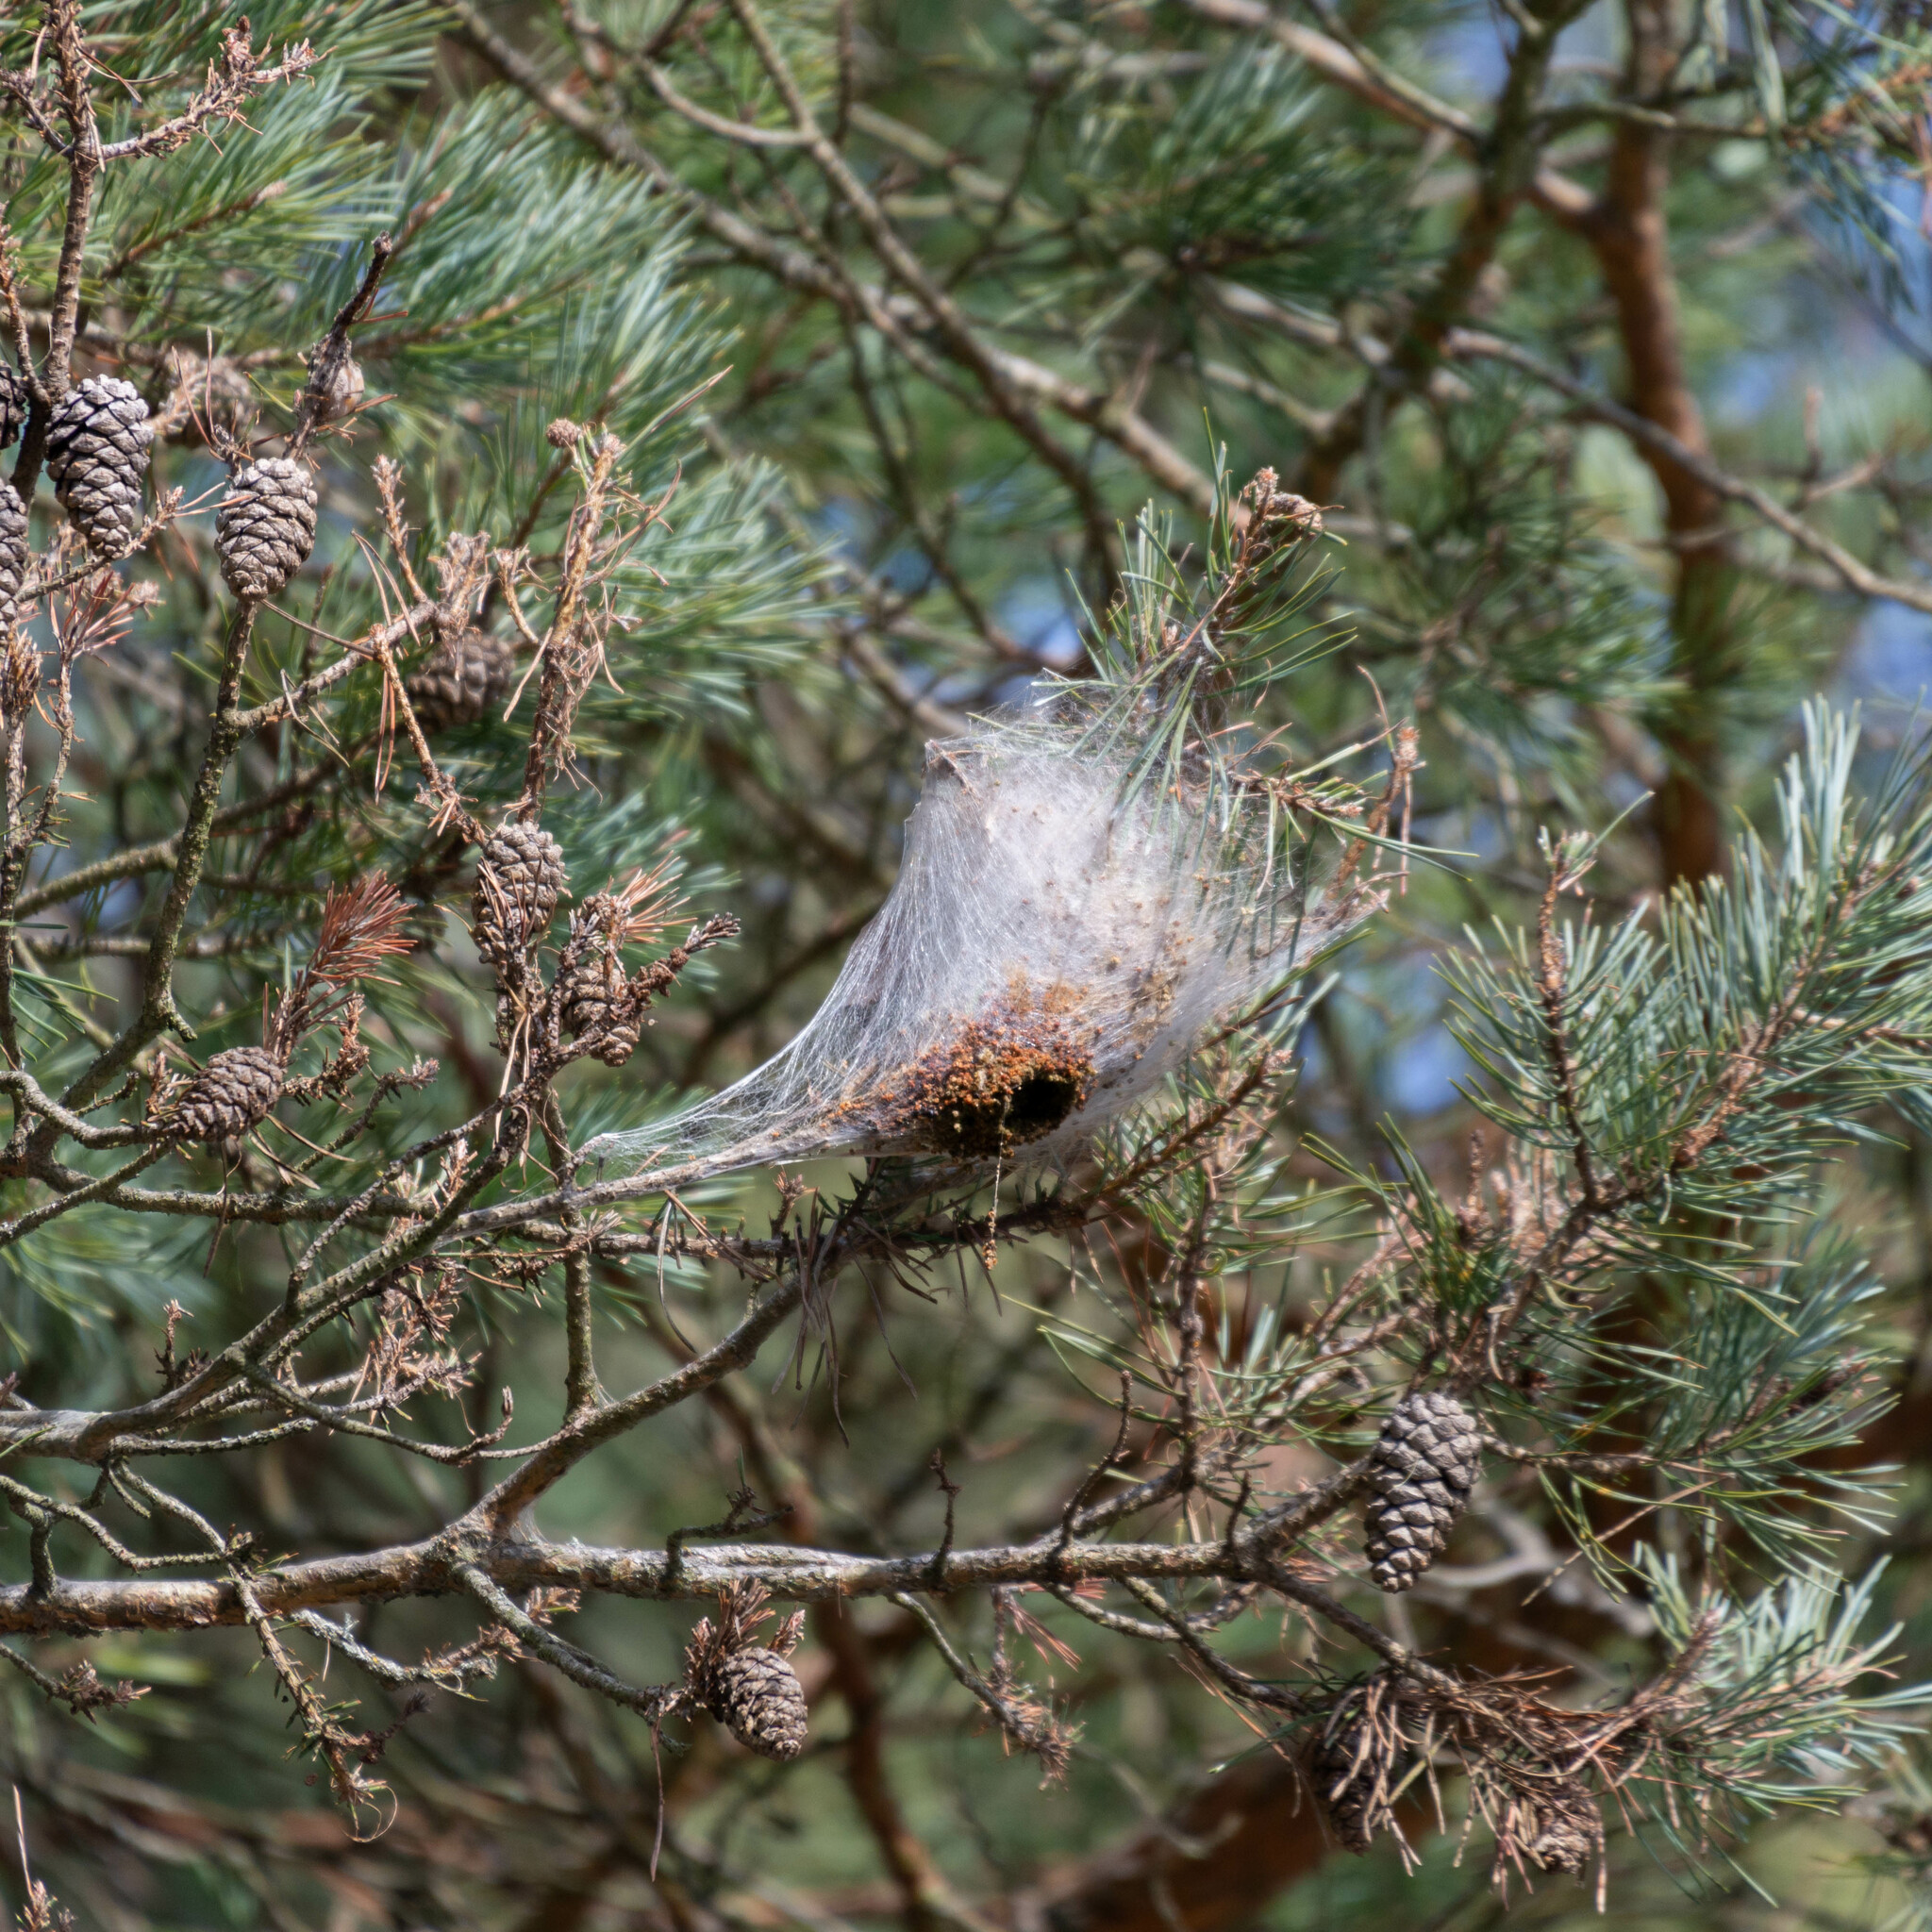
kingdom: Animalia
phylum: Arthropoda
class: Insecta
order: Lepidoptera
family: Notodontidae
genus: Thaumetopoea
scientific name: Thaumetopoea pityocampa
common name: Pine processionary
